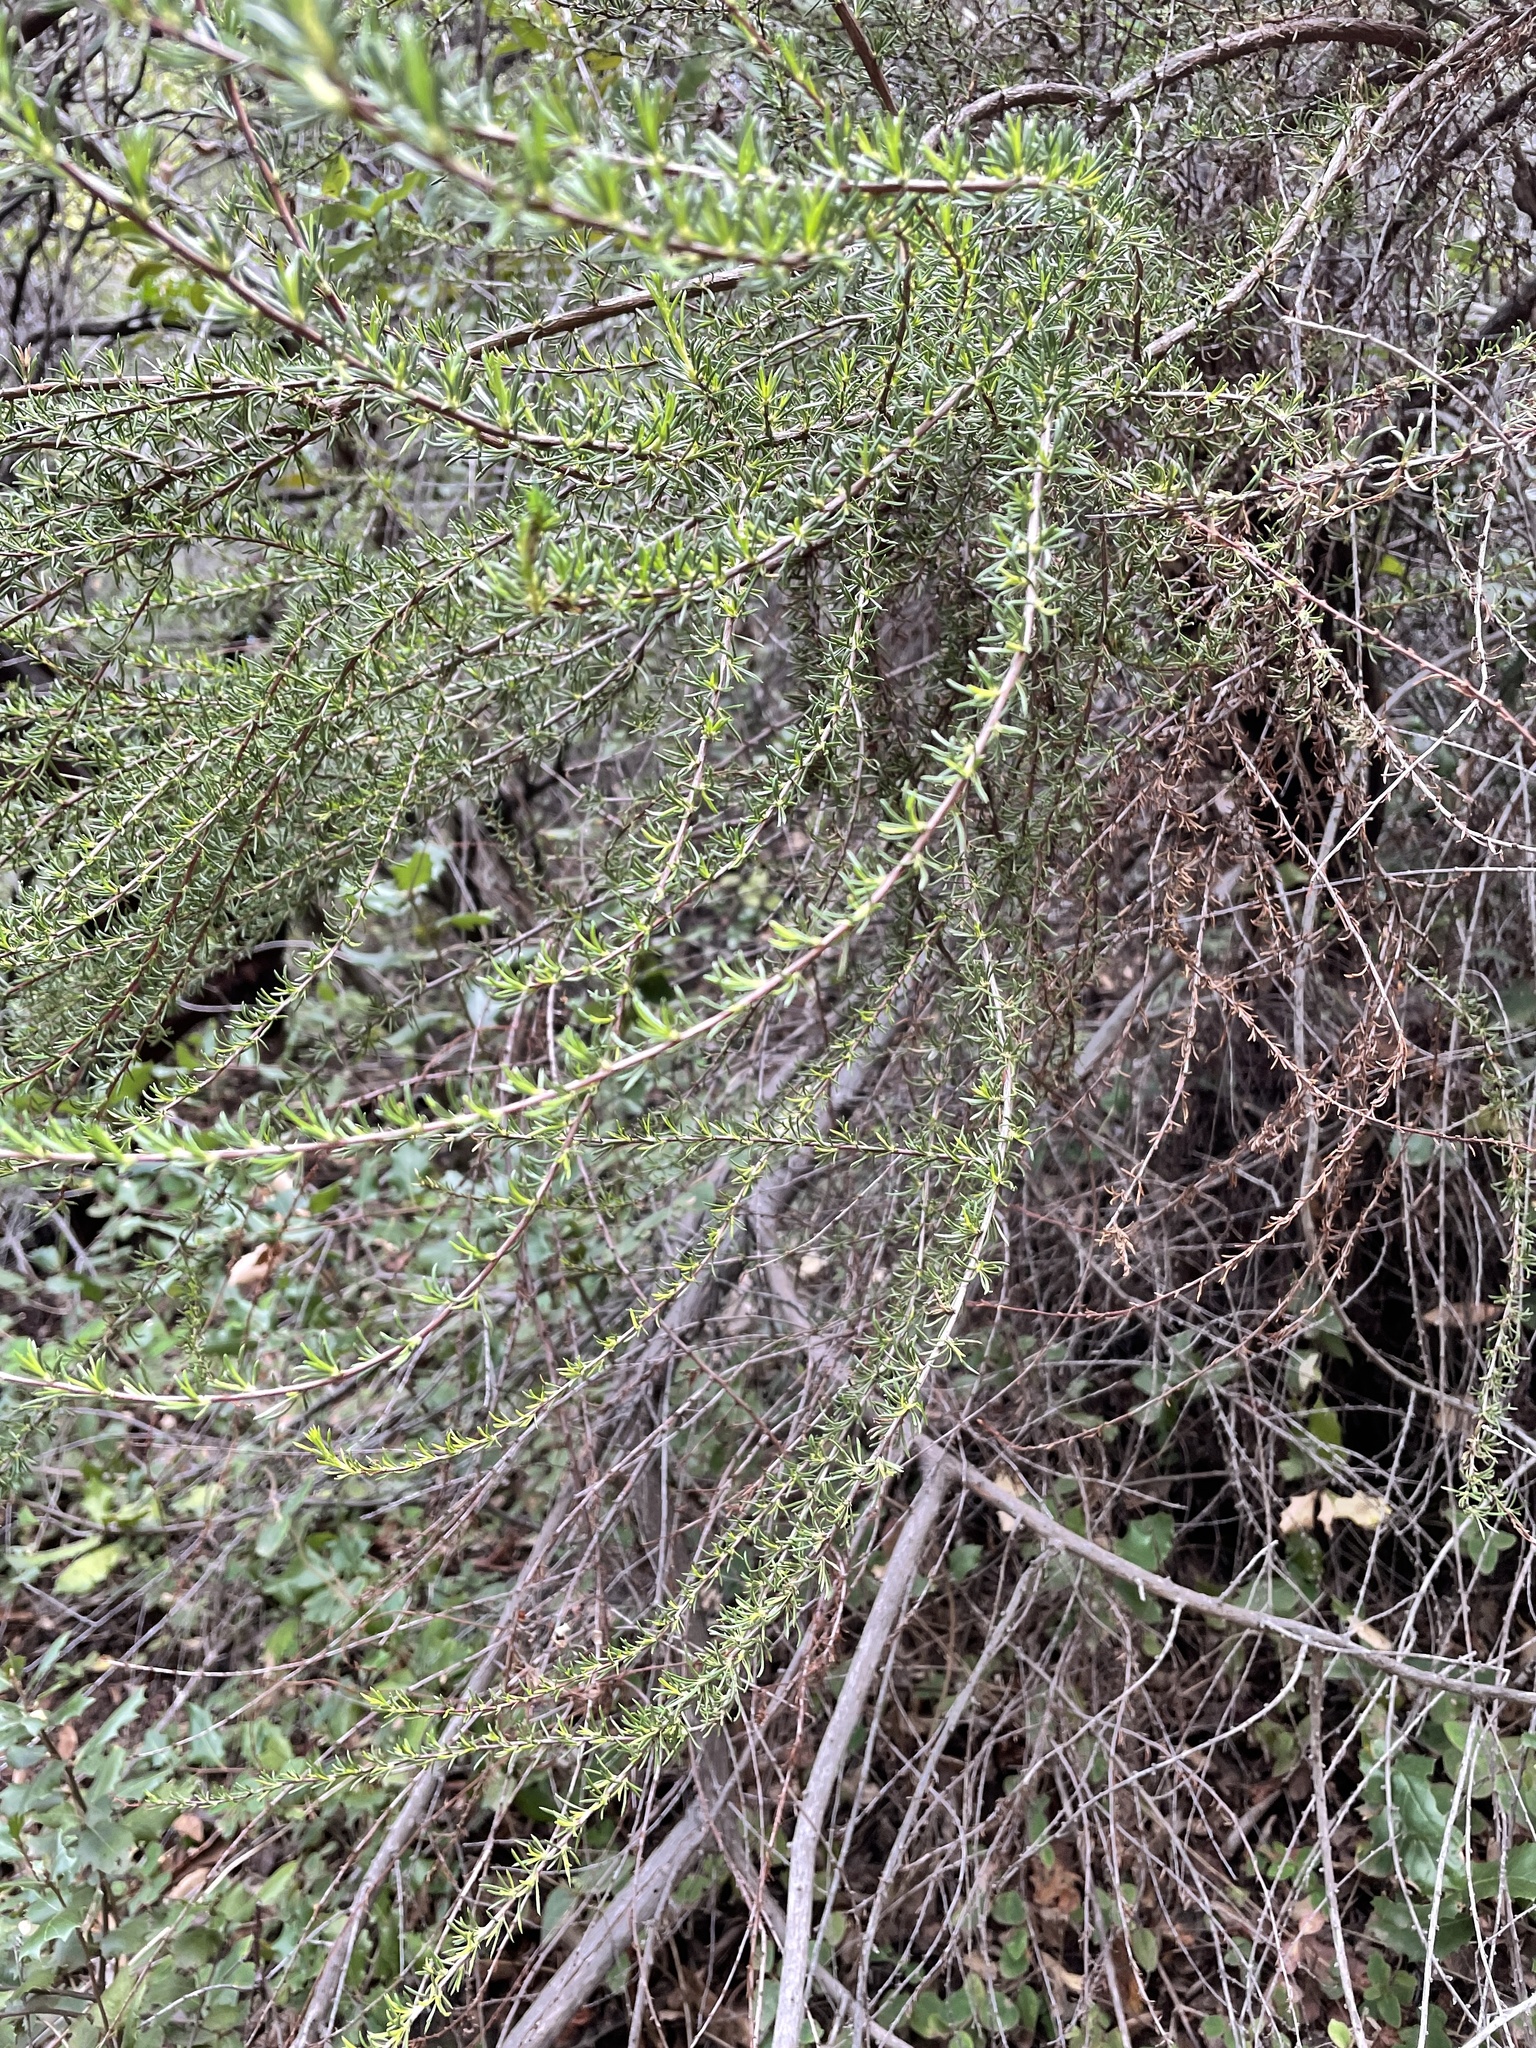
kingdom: Plantae
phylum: Tracheophyta
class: Magnoliopsida
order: Rosales
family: Rosaceae
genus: Adenostoma
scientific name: Adenostoma fasciculatum
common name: Chamise
